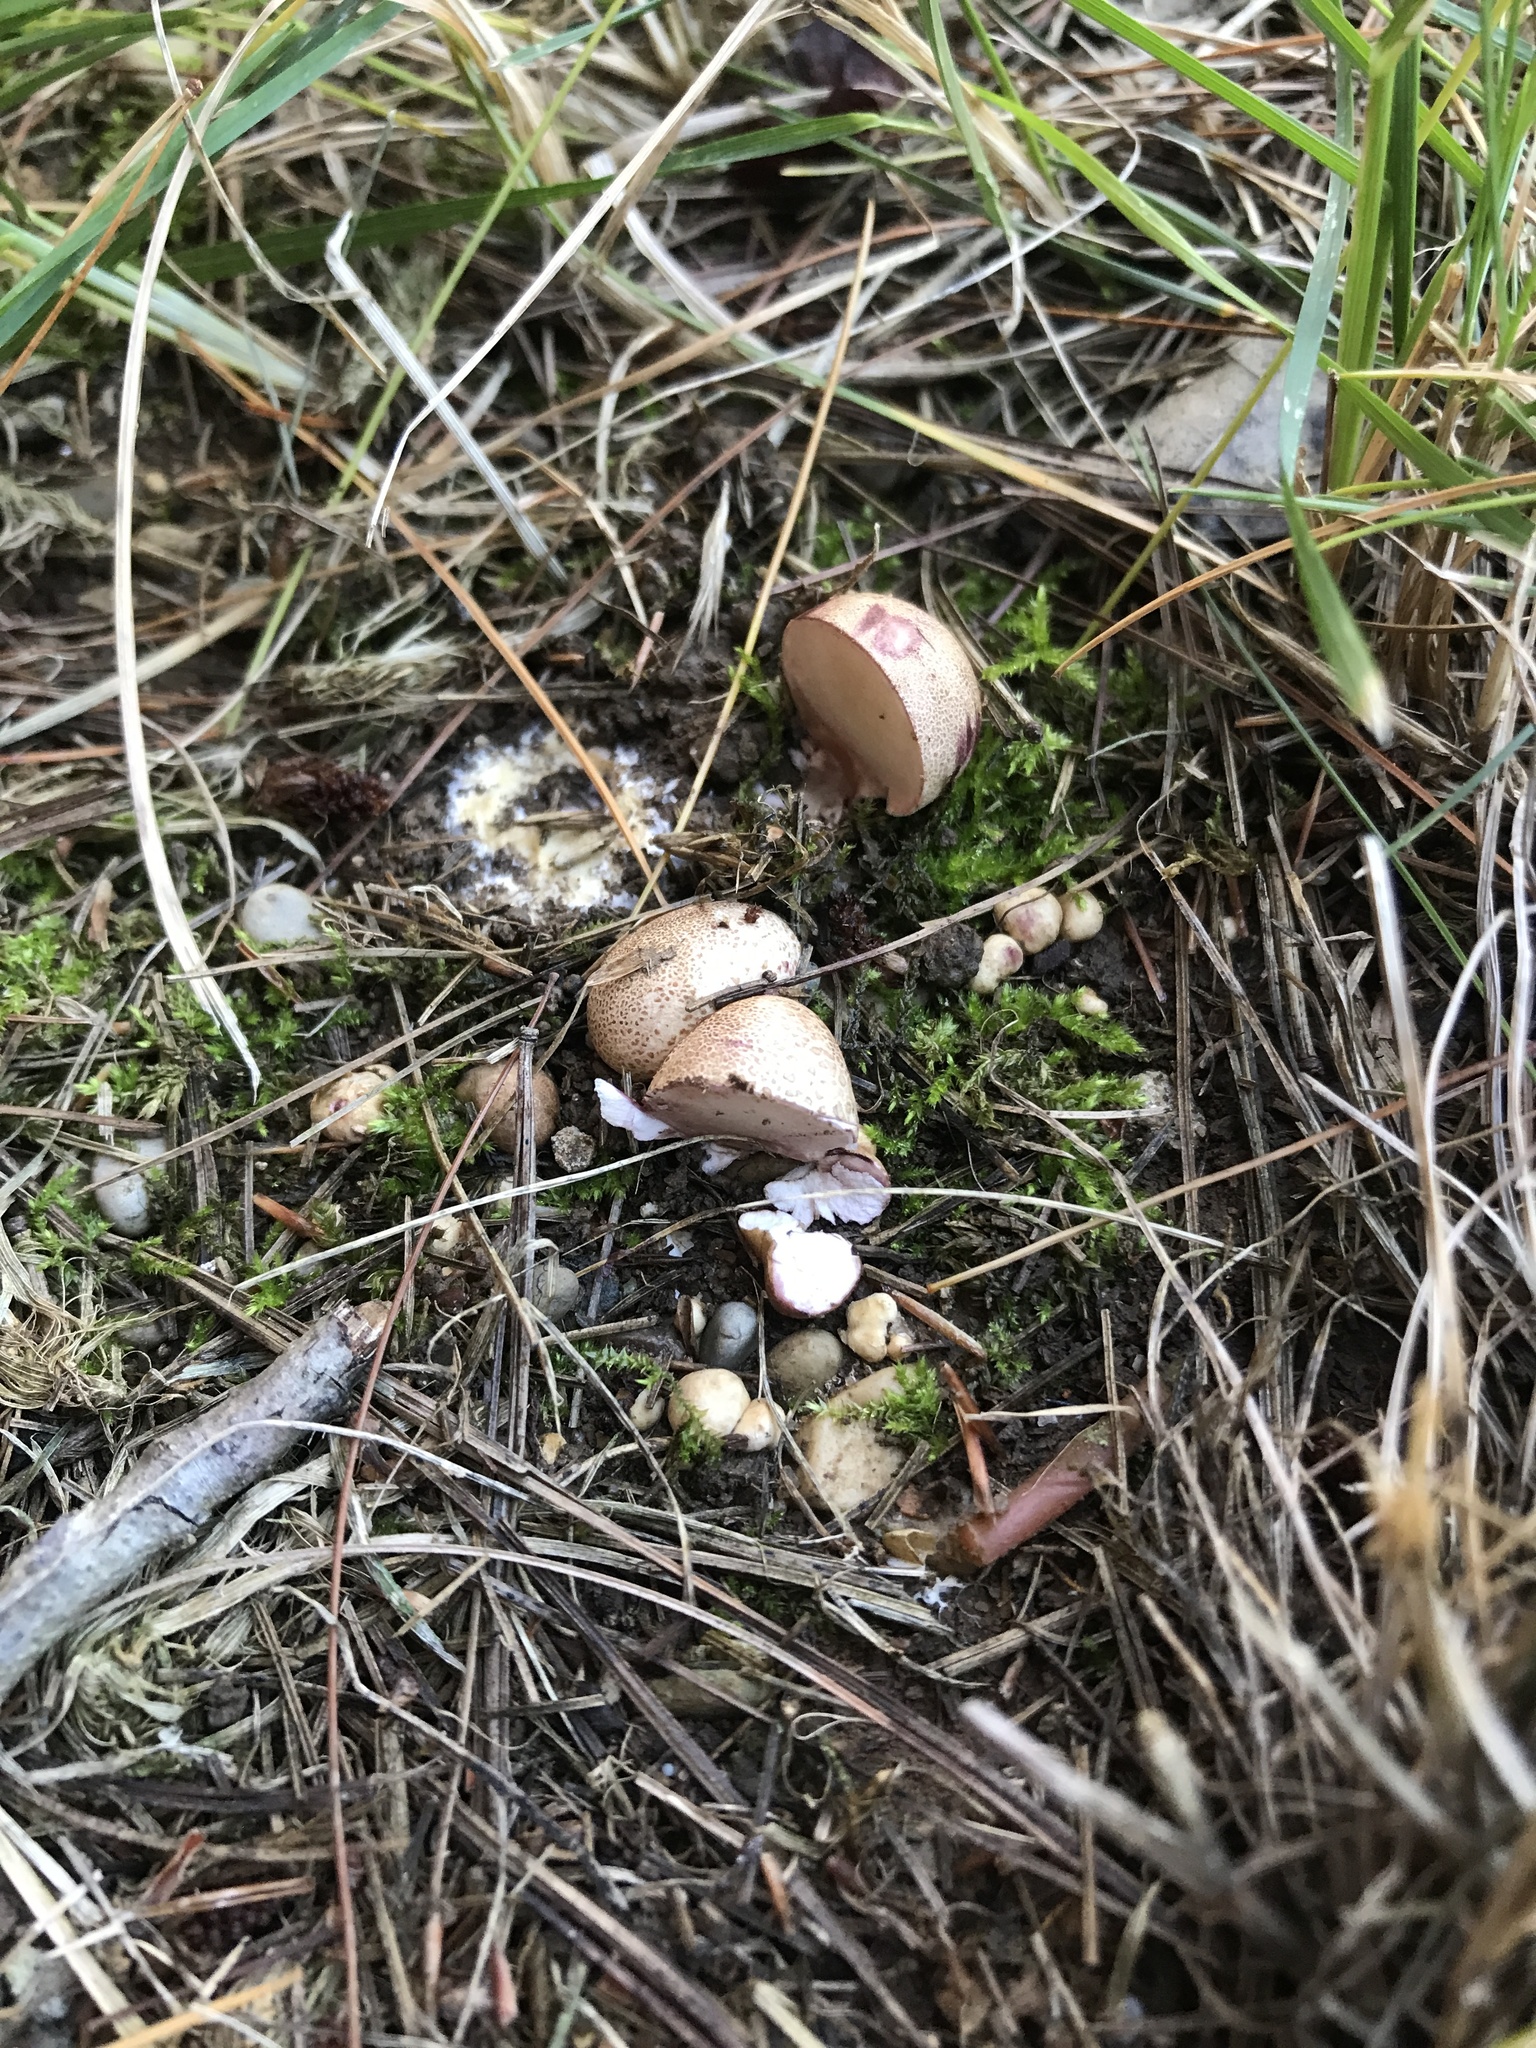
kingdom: Fungi
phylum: Basidiomycota
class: Agaricomycetes
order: Boletales
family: Sclerodermataceae
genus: Scleroderma
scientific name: Scleroderma citrinum
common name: Common earthball
